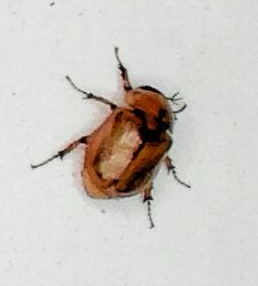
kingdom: Animalia
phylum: Arthropoda
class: Insecta
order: Coleoptera
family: Scarabaeidae
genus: Cyclocephala
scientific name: Cyclocephala signaticollis
